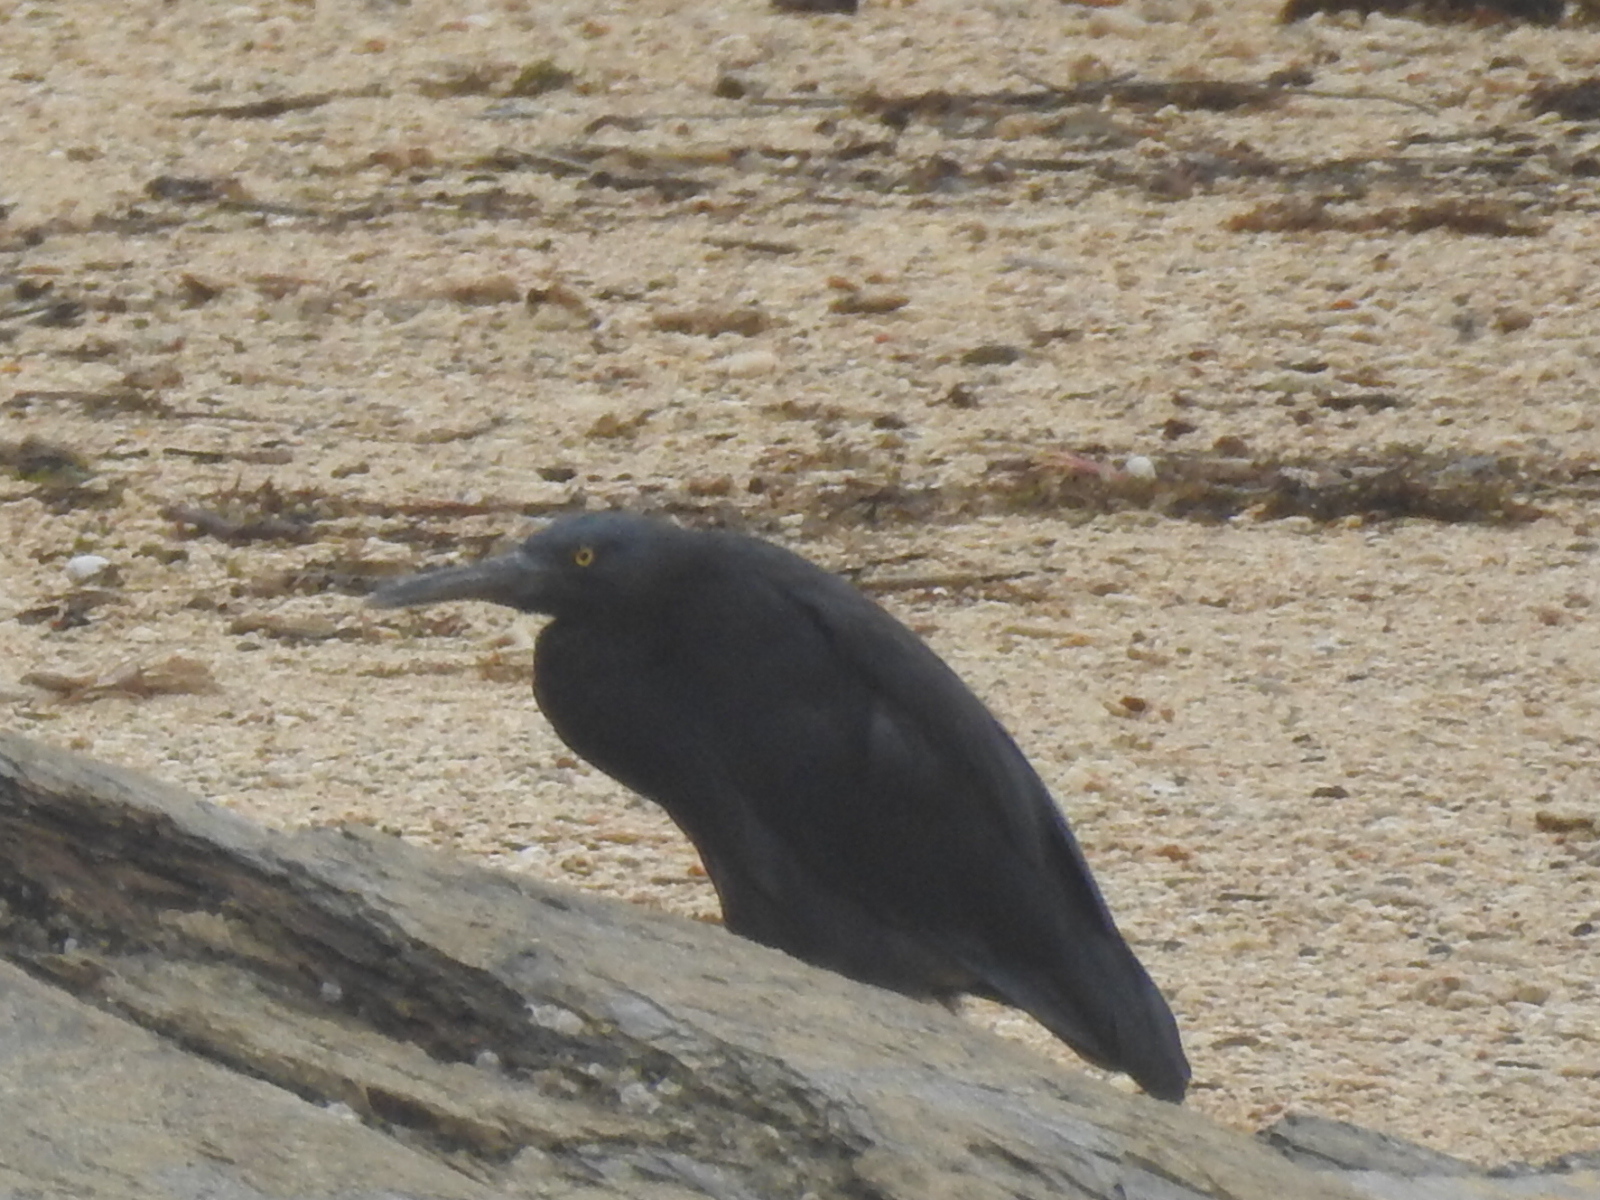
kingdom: Animalia
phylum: Chordata
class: Aves
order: Pelecaniformes
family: Ardeidae
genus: Egretta
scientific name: Egretta sacra
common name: Pacific reef heron
